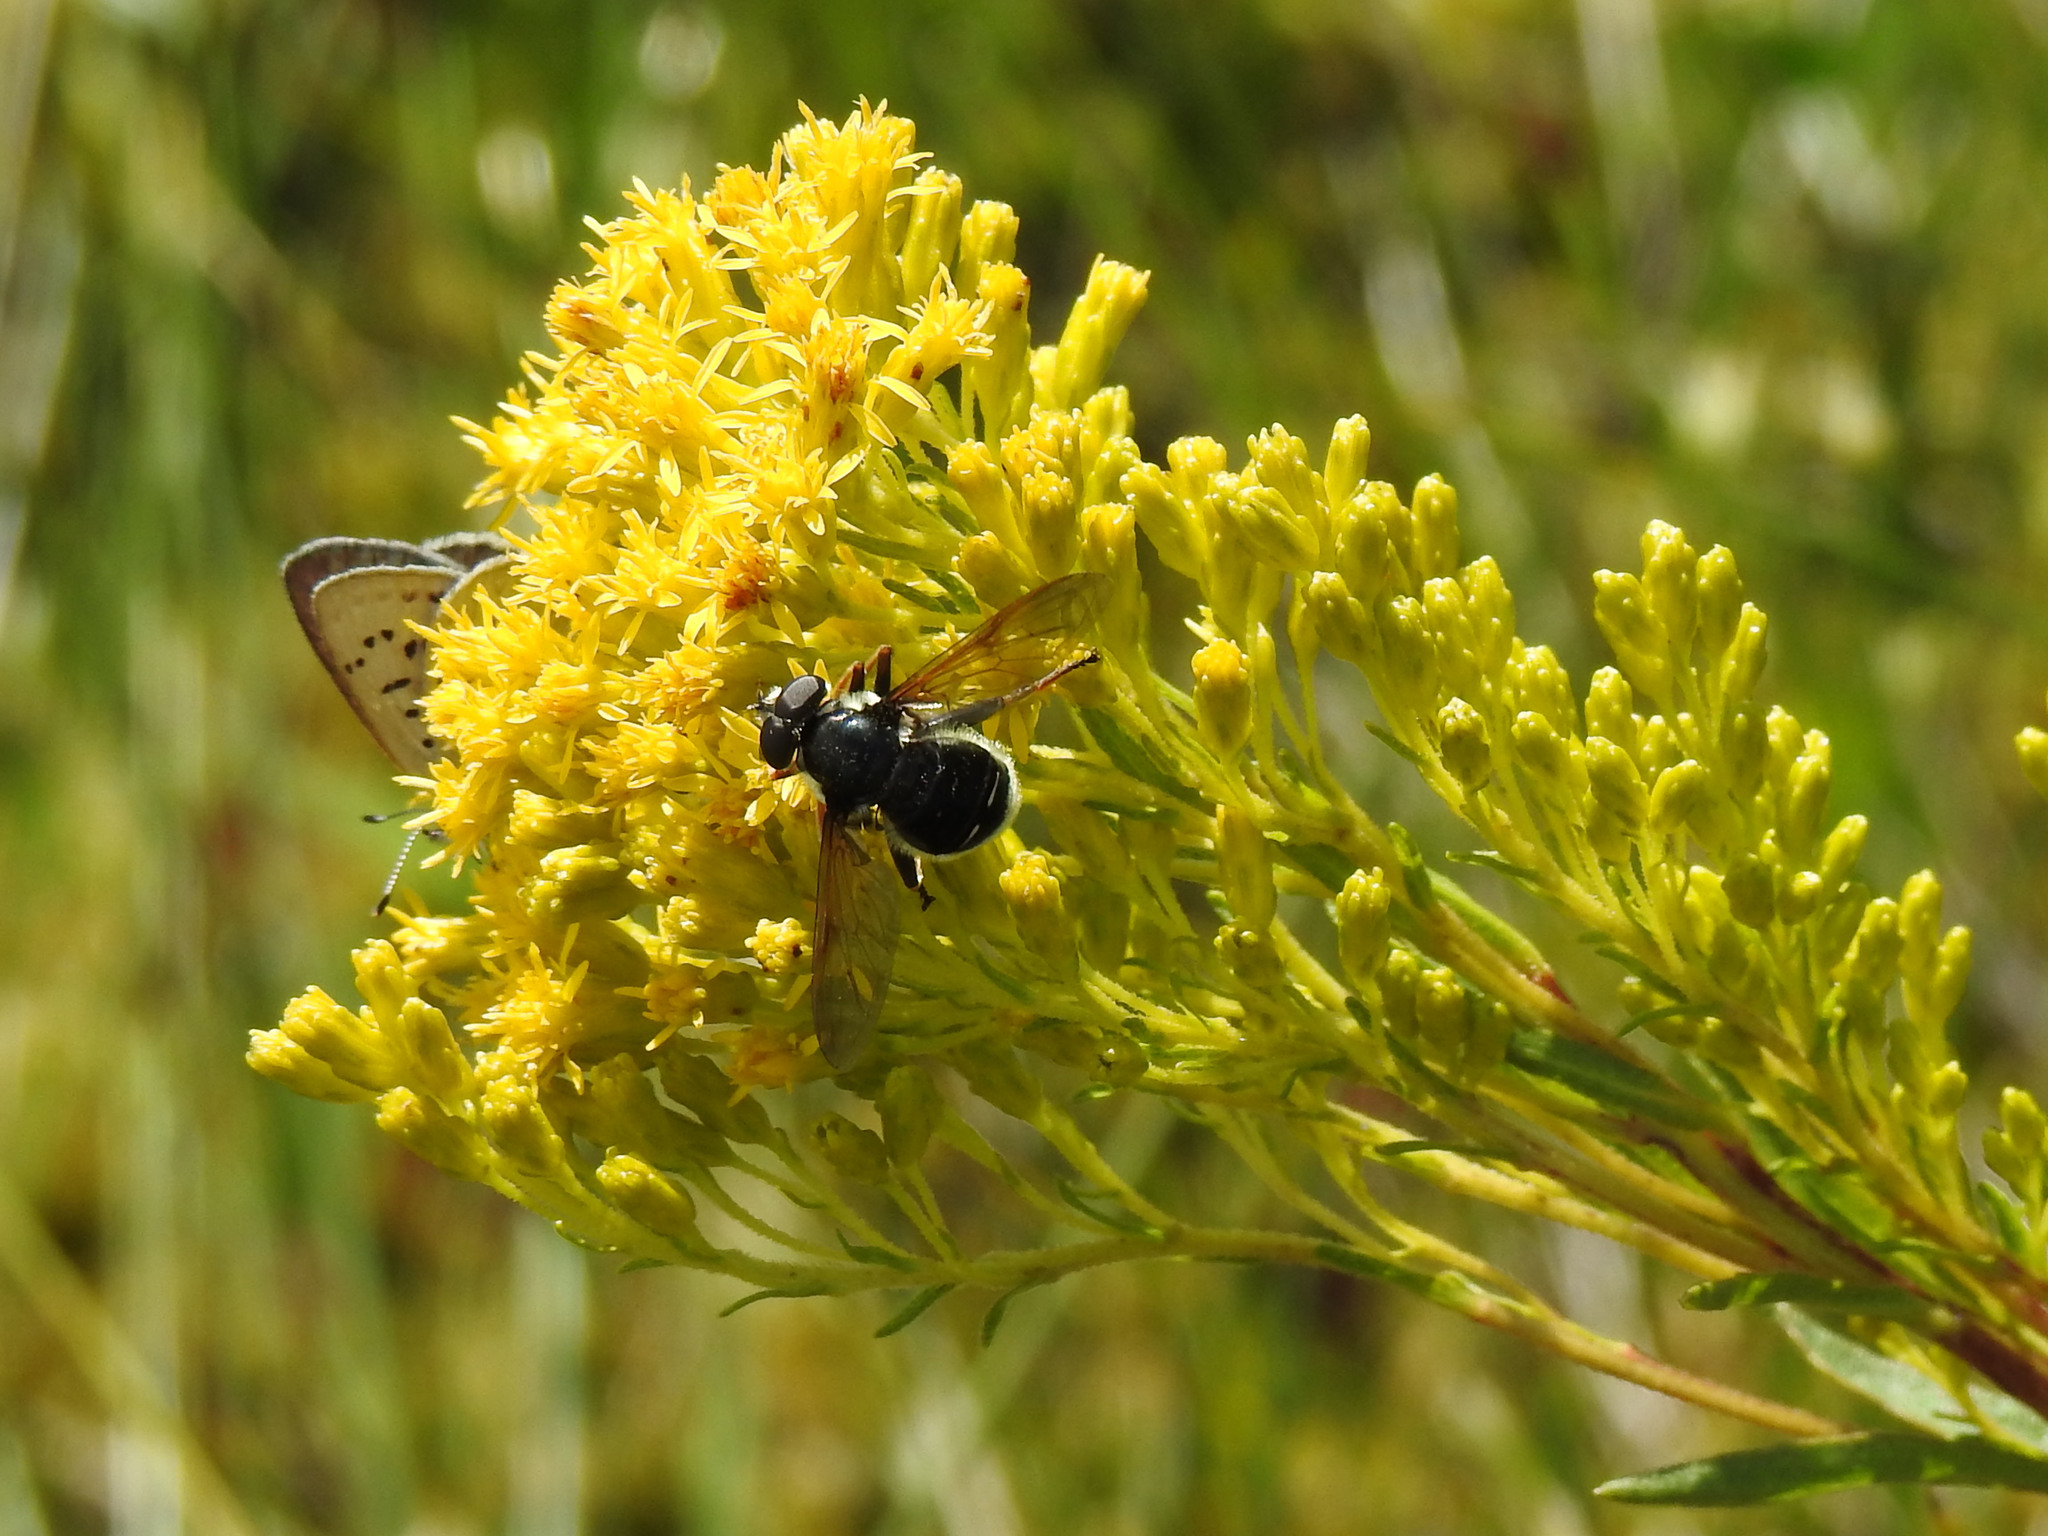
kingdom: Animalia
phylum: Arthropoda
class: Insecta
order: Diptera
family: Syrphidae
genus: Sericomyia
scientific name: Sericomyia militaris
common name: Narrow-banded pond fly
